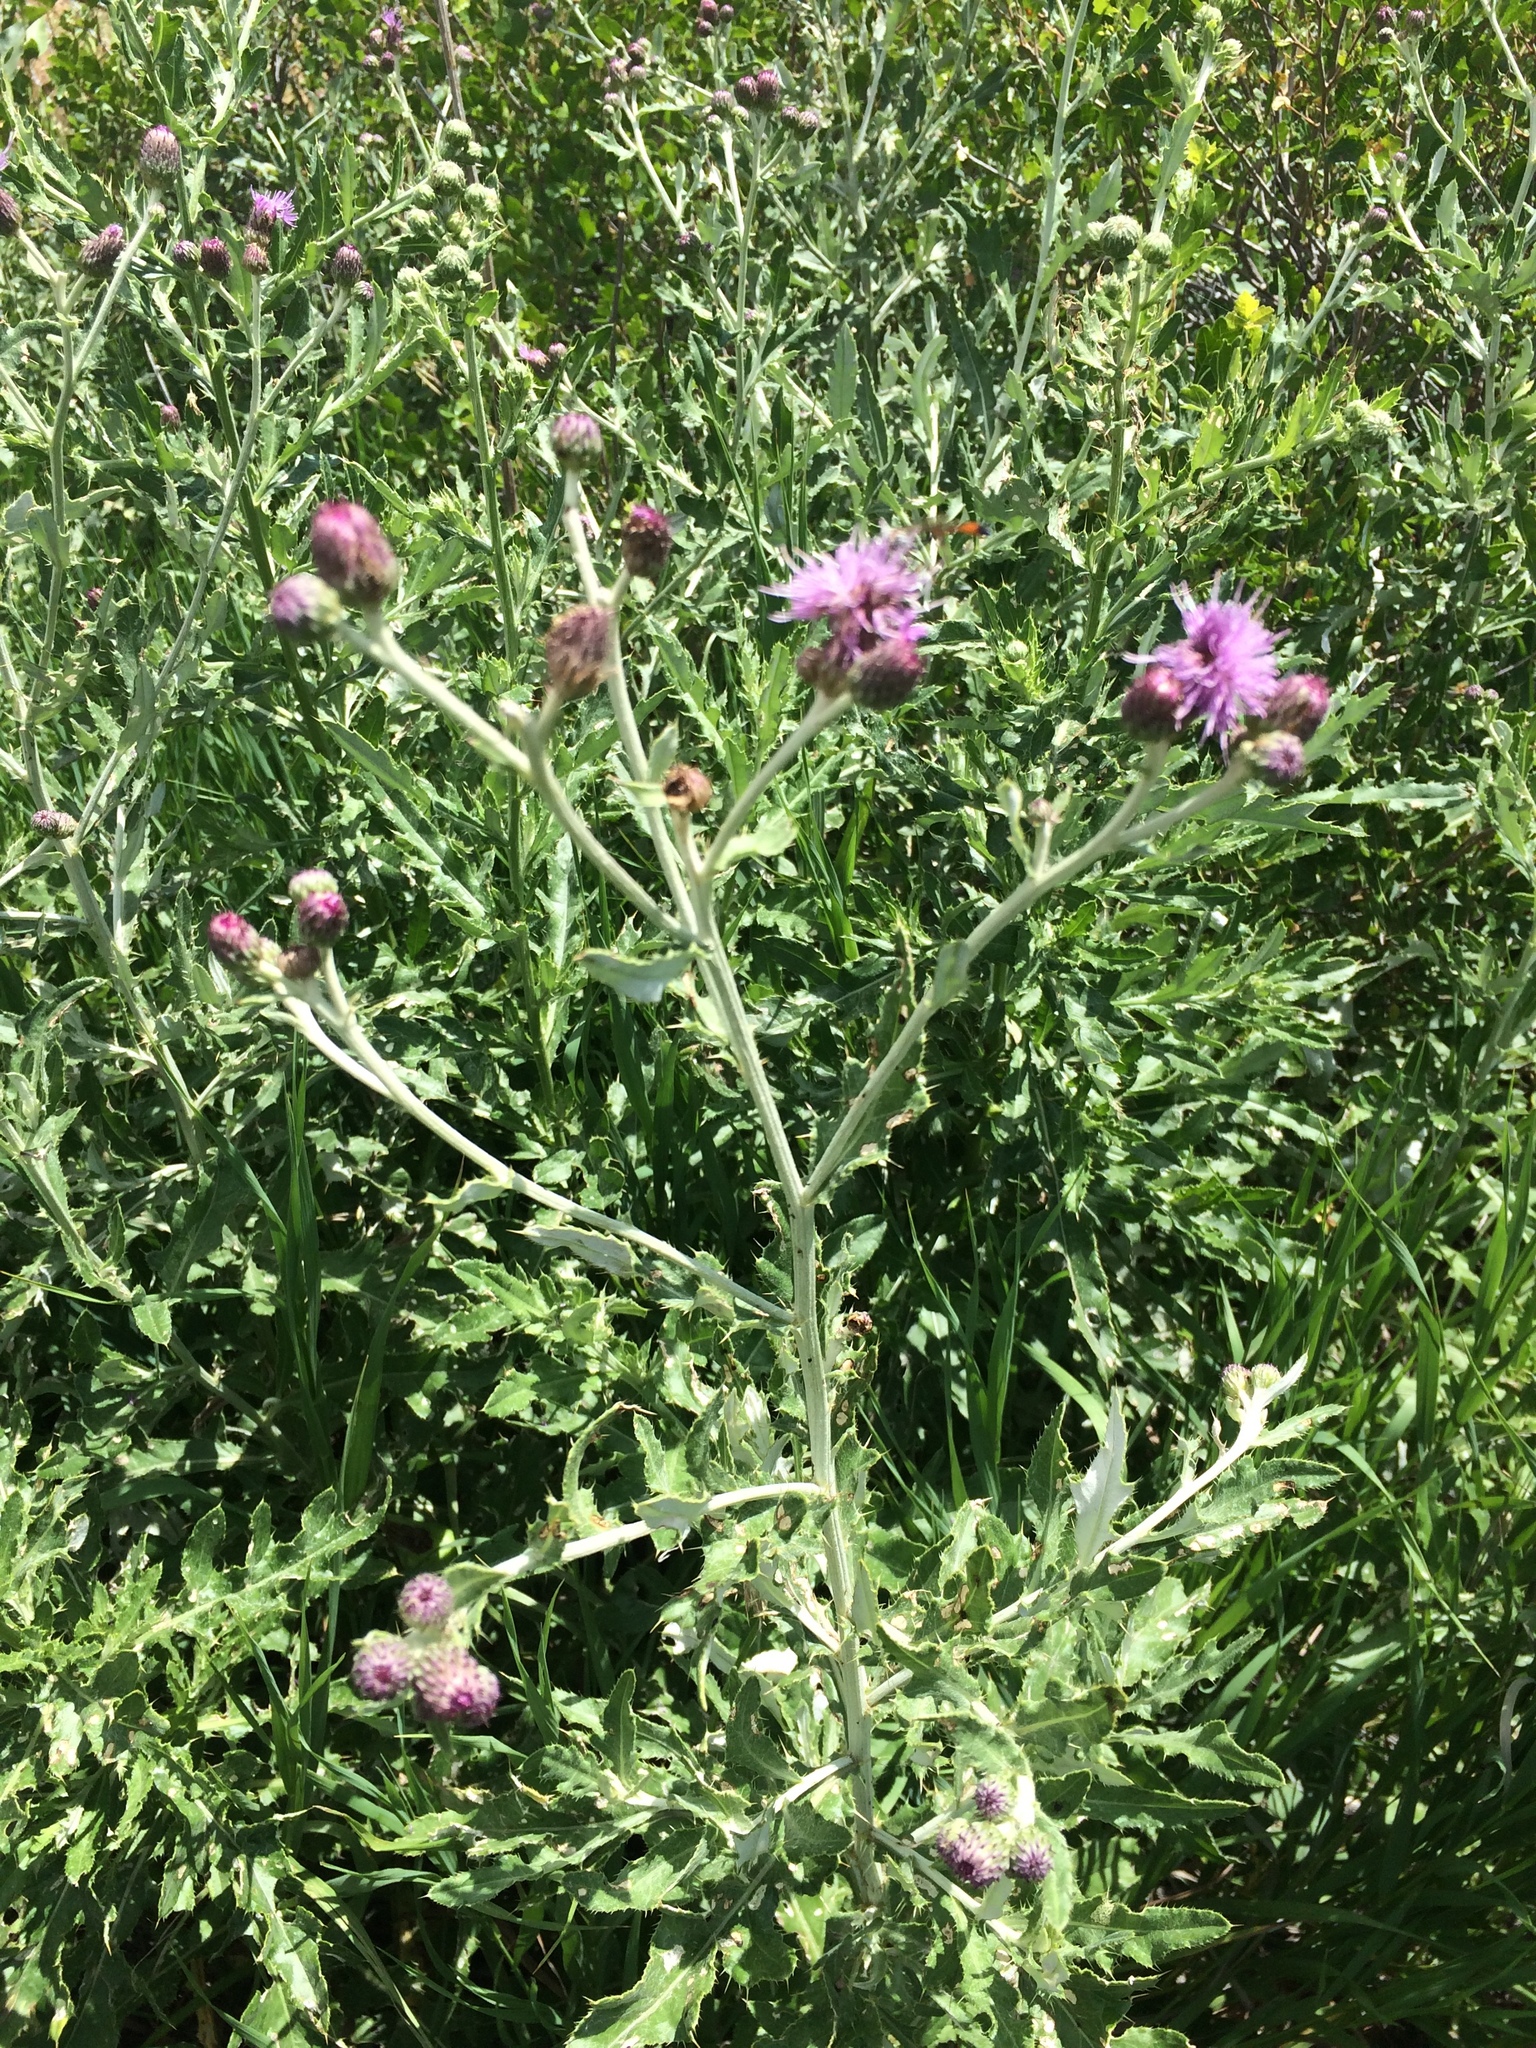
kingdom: Plantae
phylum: Tracheophyta
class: Magnoliopsida
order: Asterales
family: Asteraceae
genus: Cirsium
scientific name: Cirsium arvense
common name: Creeping thistle
